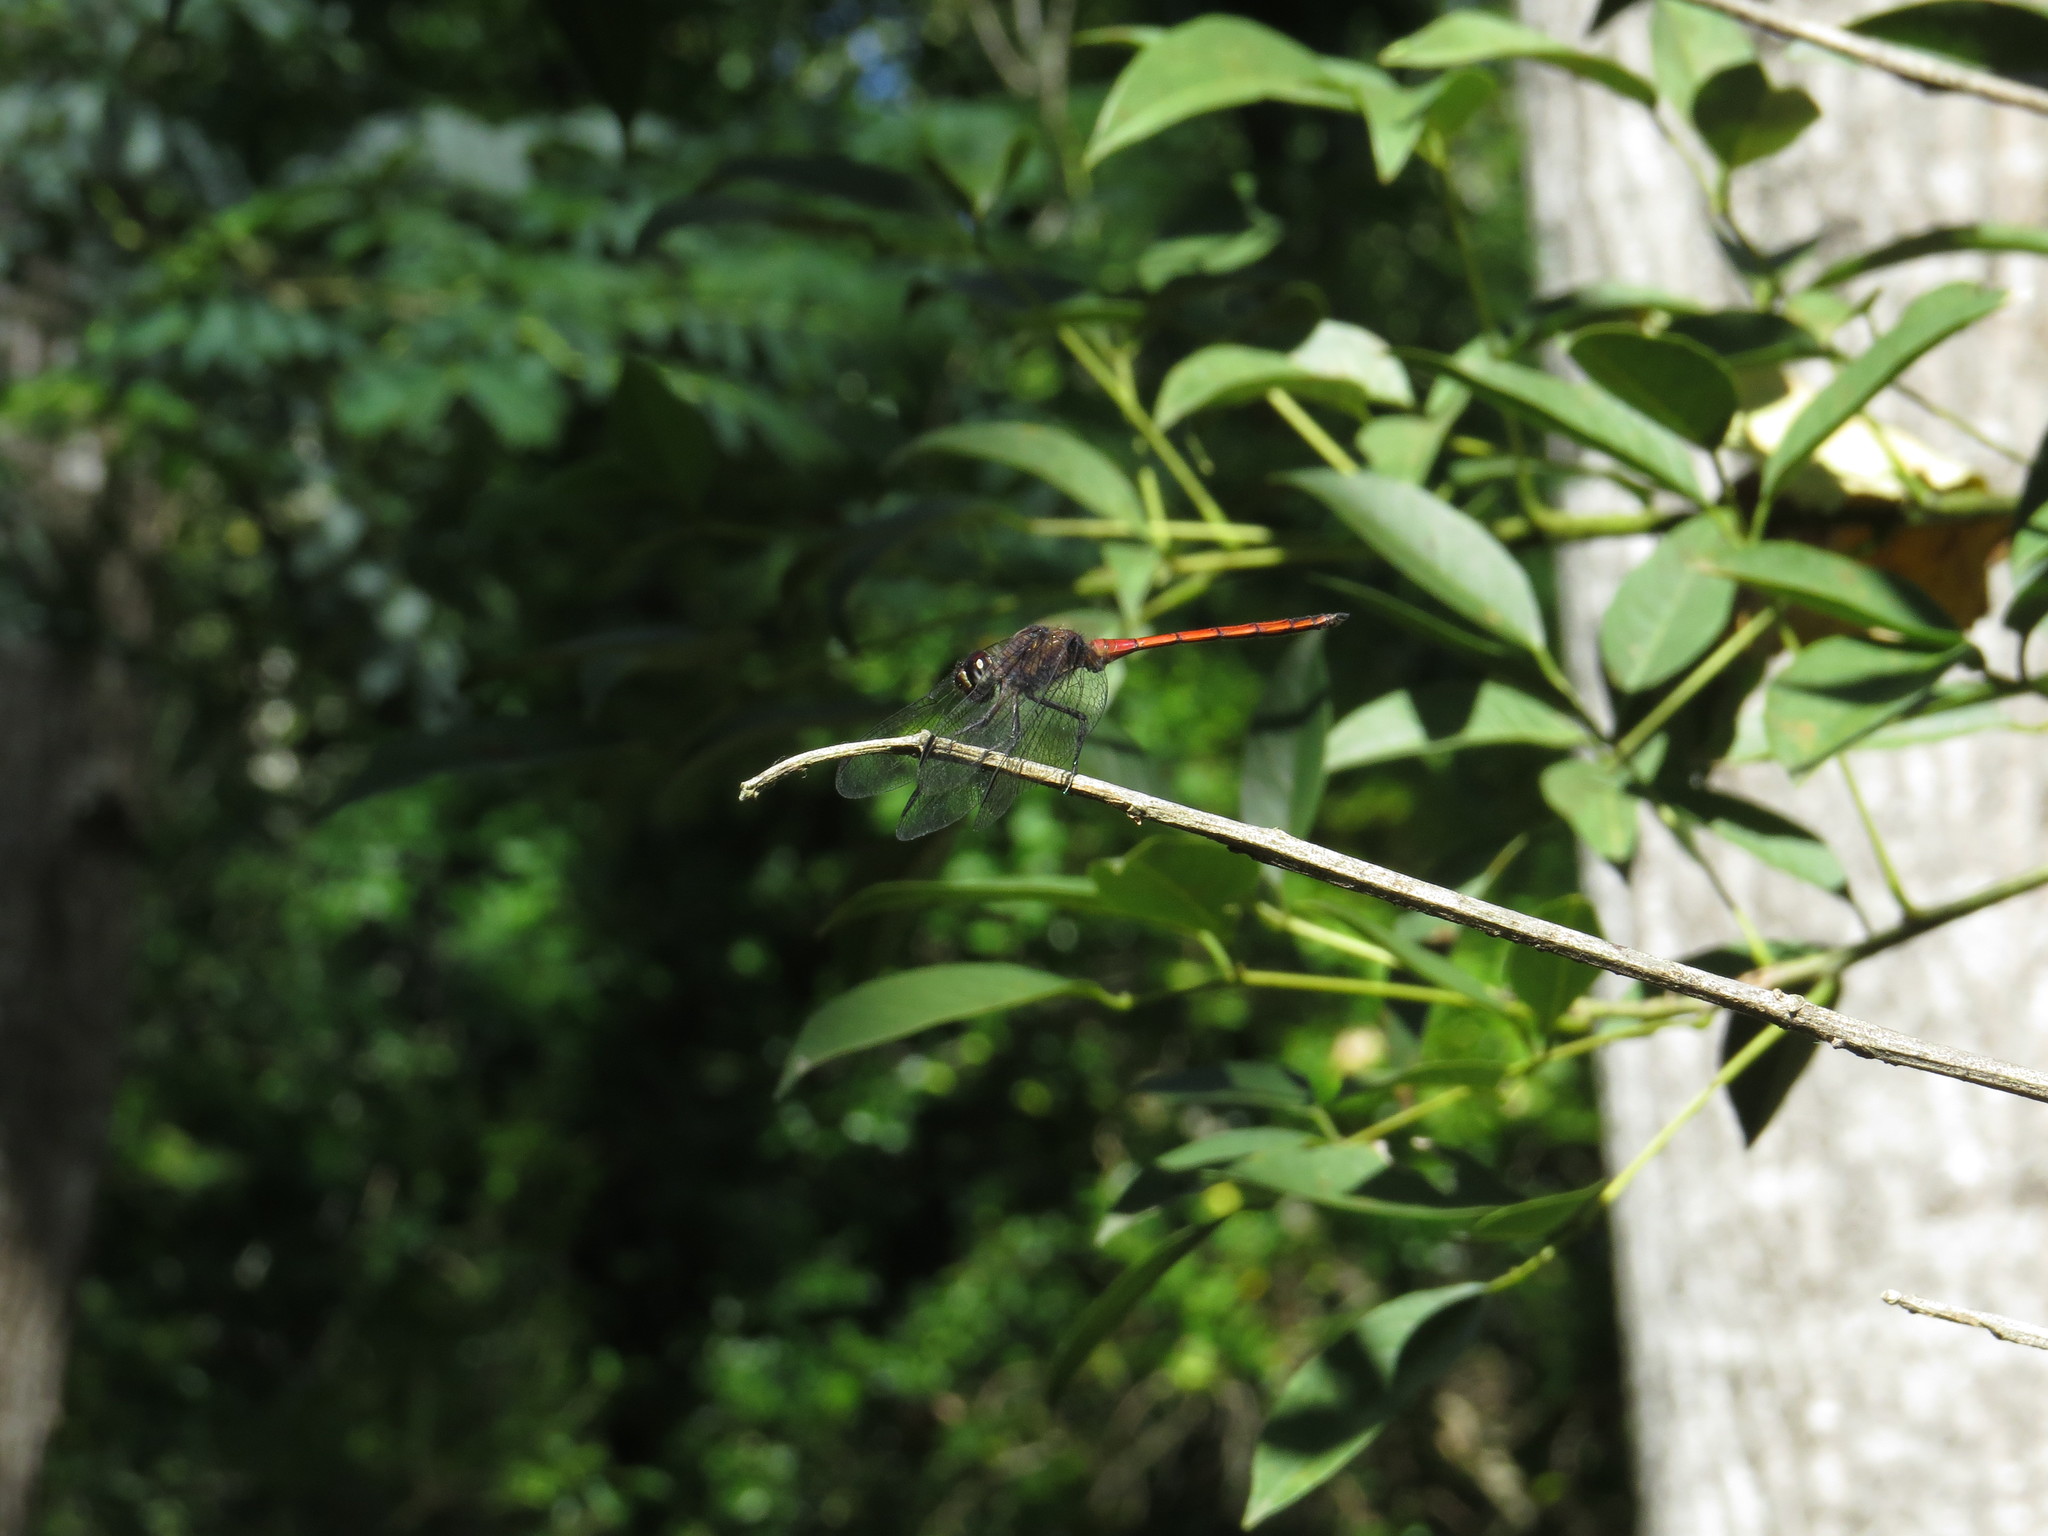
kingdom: Animalia
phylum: Arthropoda
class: Insecta
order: Odonata
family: Libellulidae
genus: Orthemis
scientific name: Orthemis ambinigra
